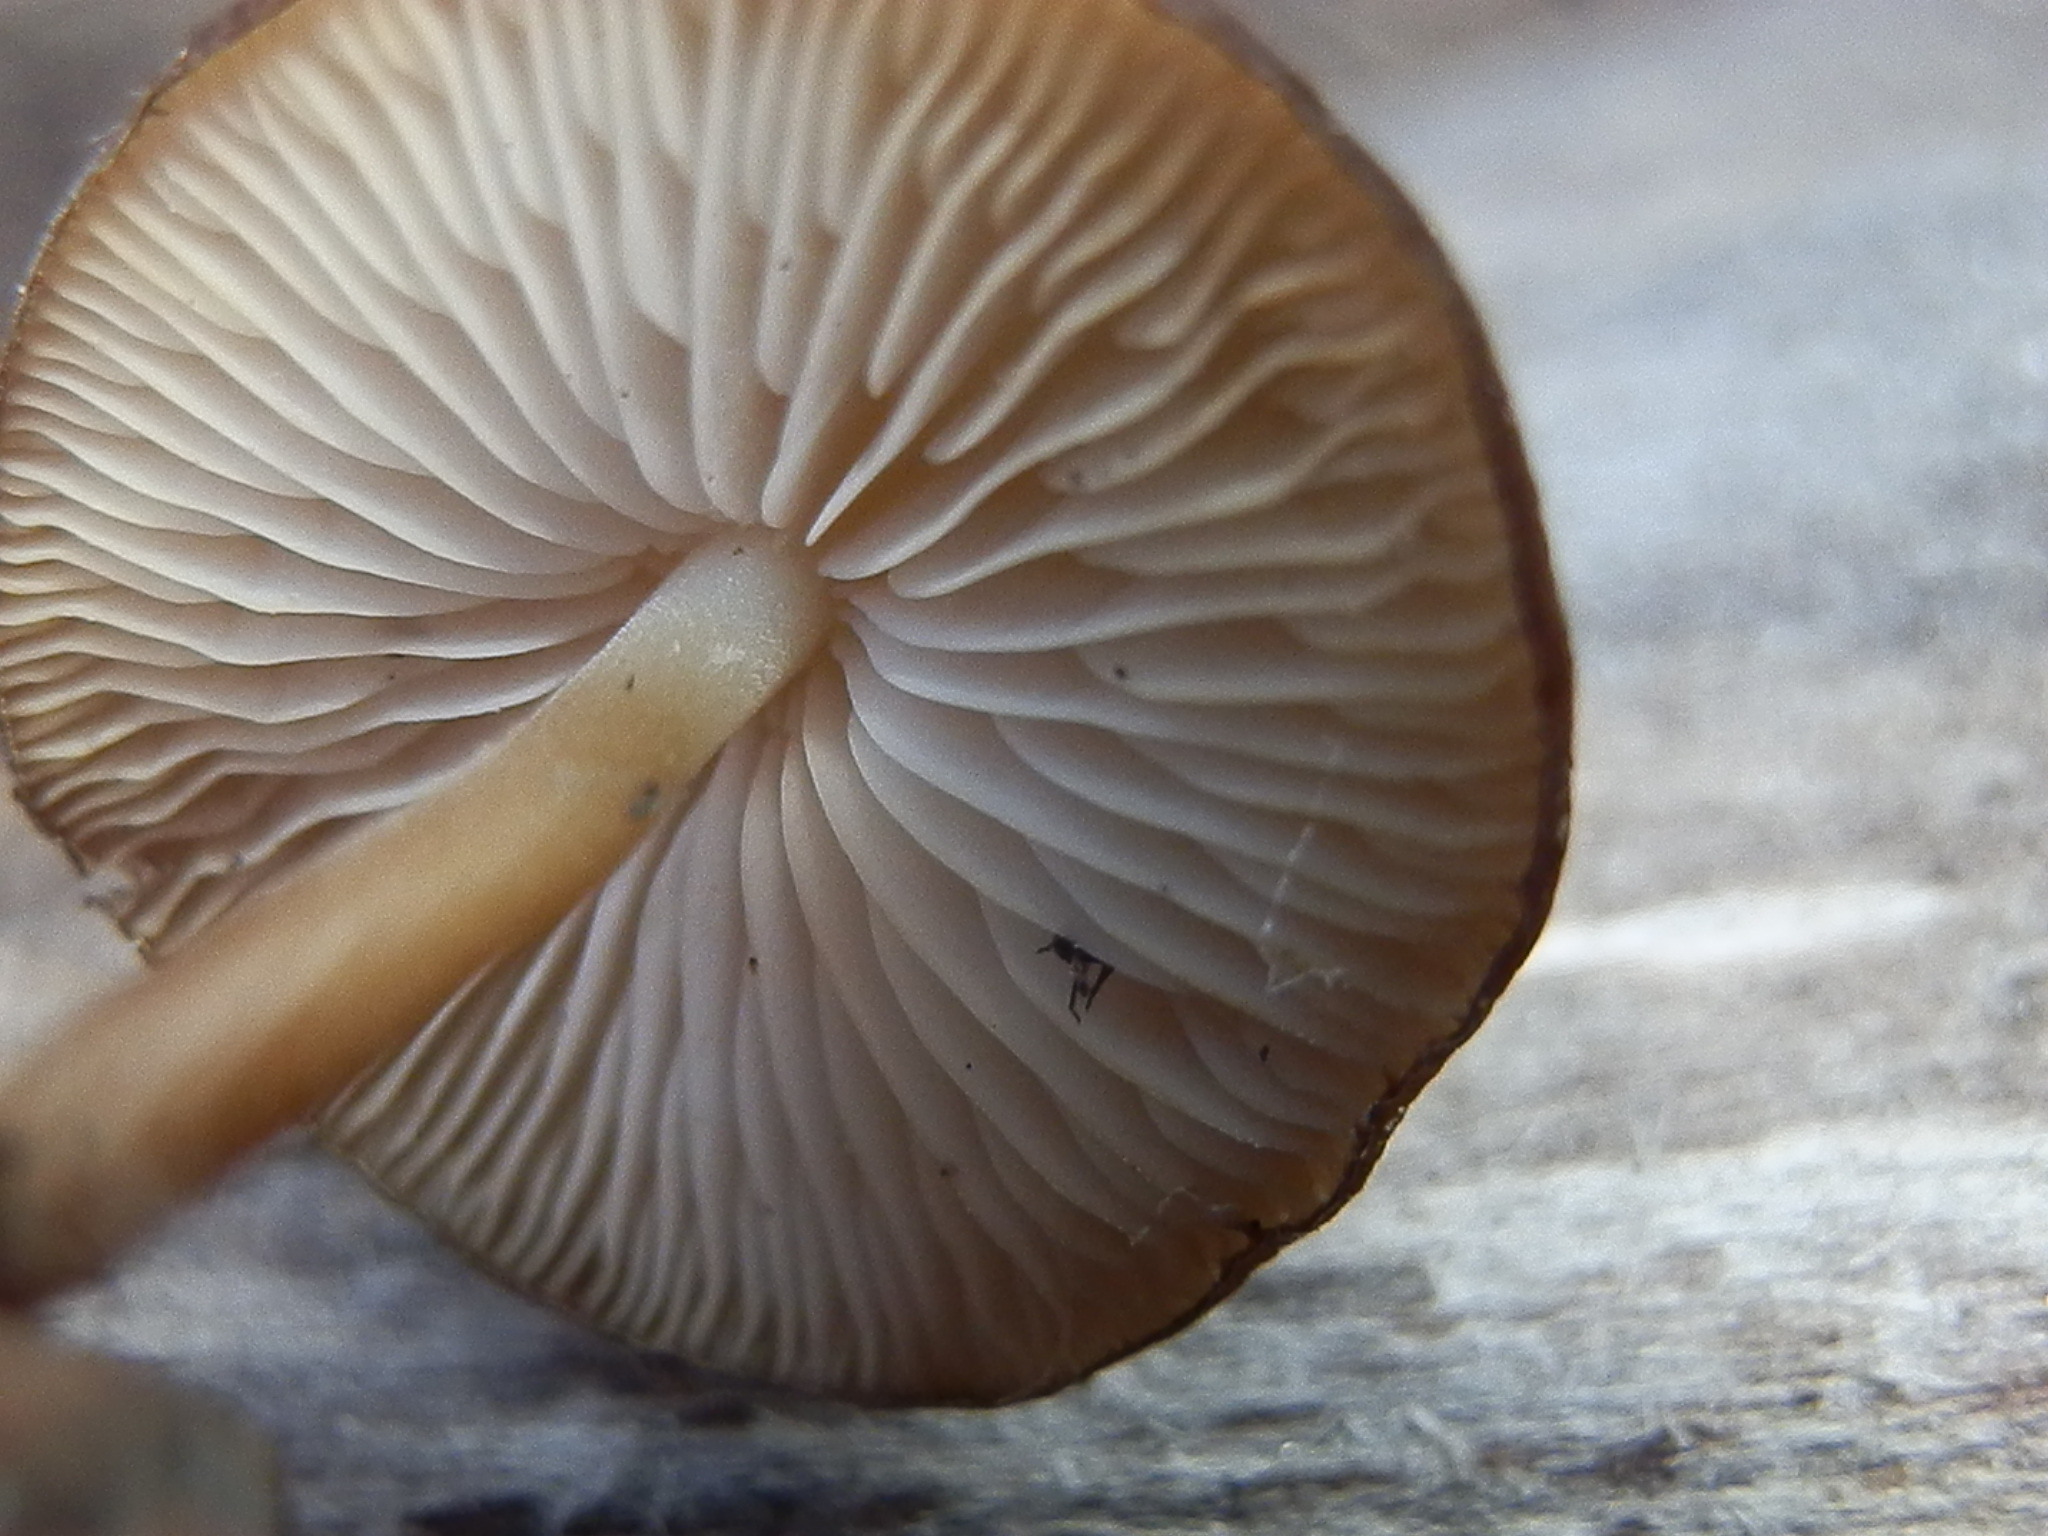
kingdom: Fungi
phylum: Basidiomycota
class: Agaricomycetes
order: Agaricales
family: Physalacriaceae
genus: Strobilurus
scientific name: Strobilurus albipilatus
